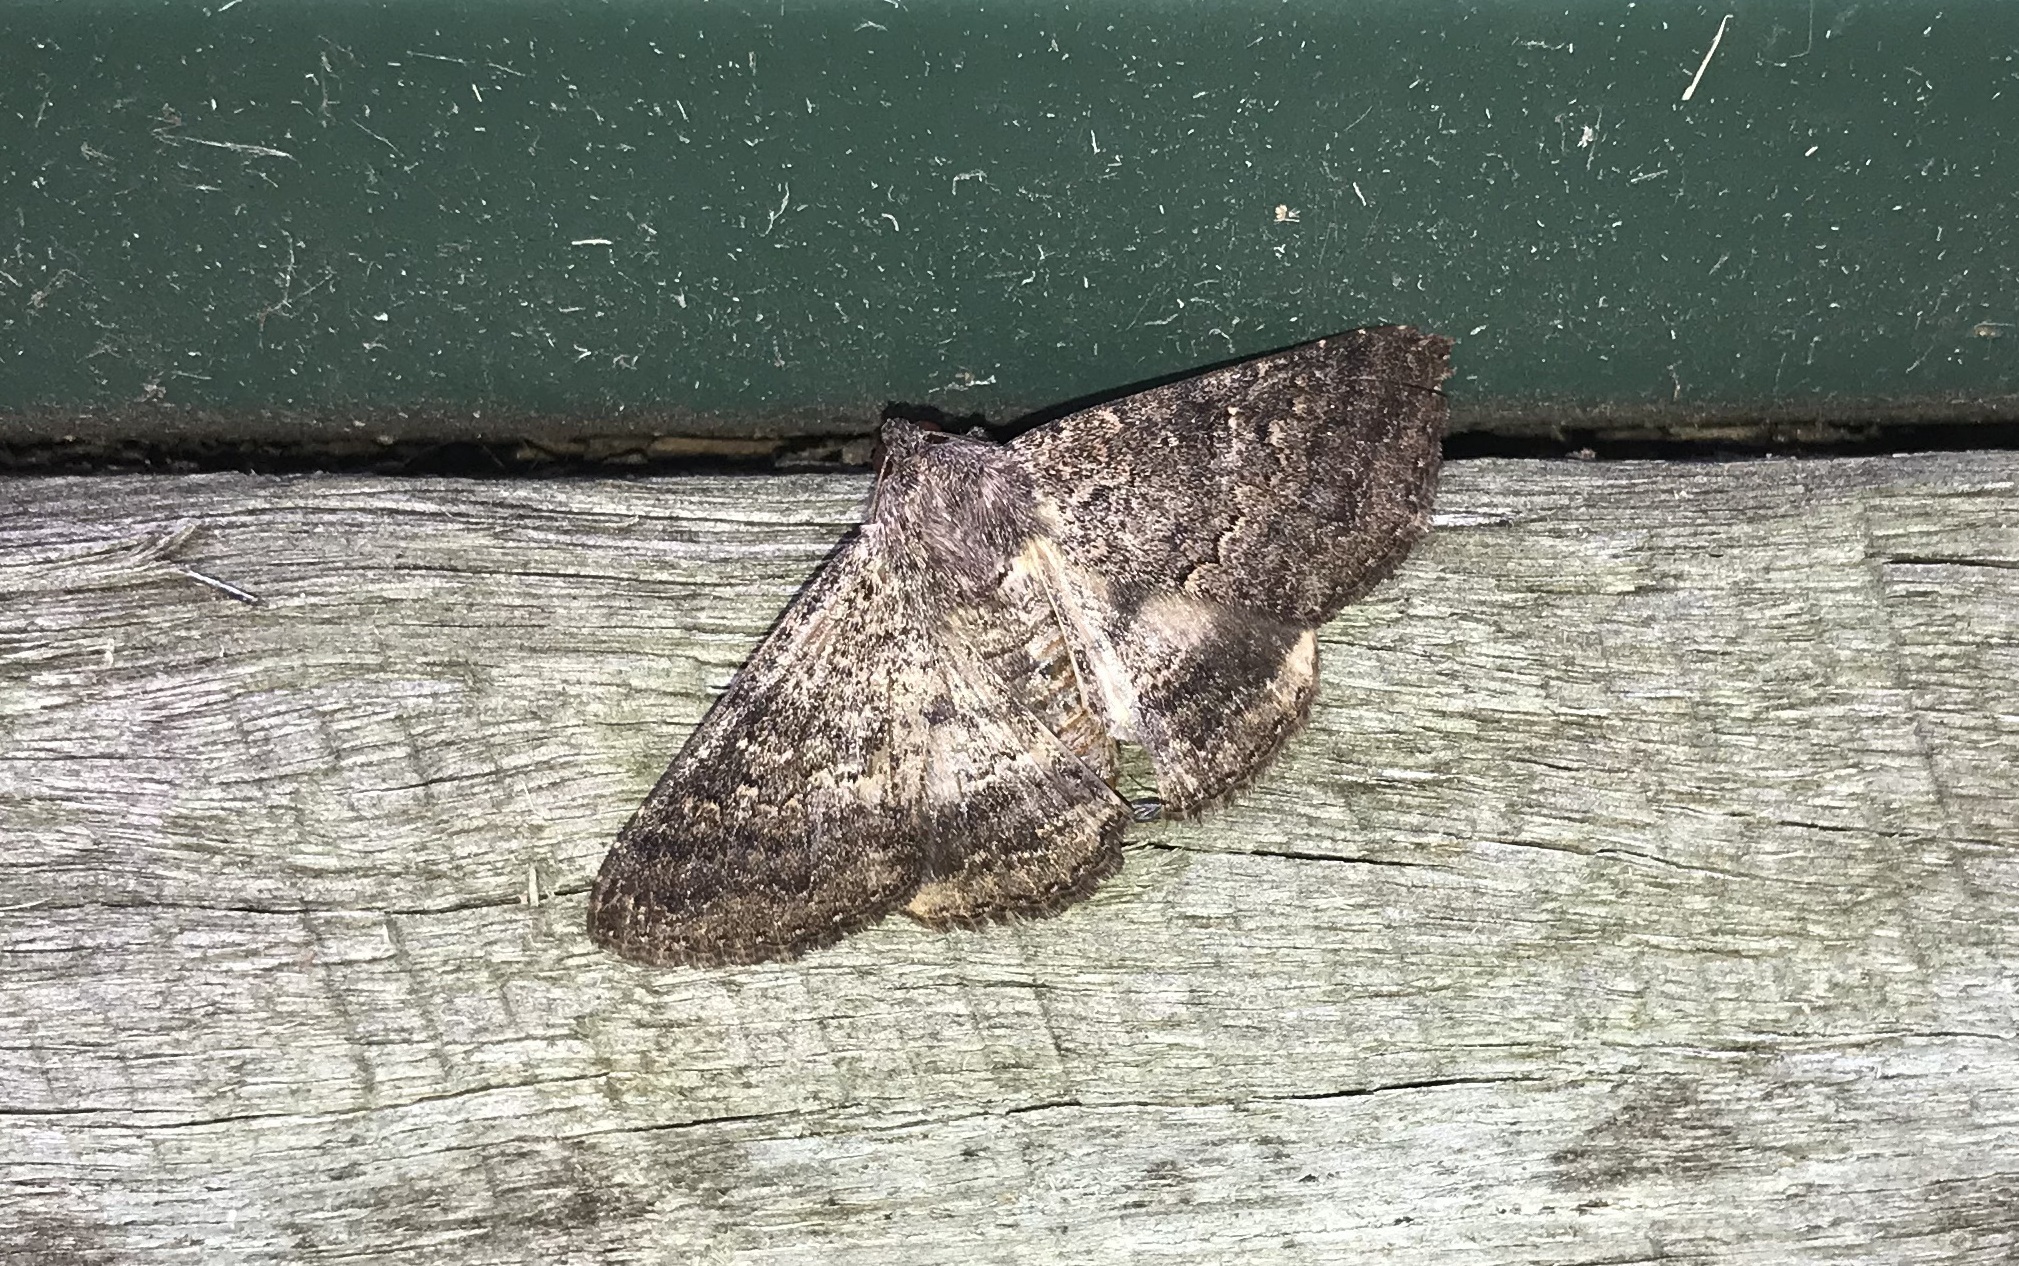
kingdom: Animalia
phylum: Arthropoda
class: Insecta
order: Lepidoptera
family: Erebidae
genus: Eudesmeola
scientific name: Eudesmeola lawsoni
